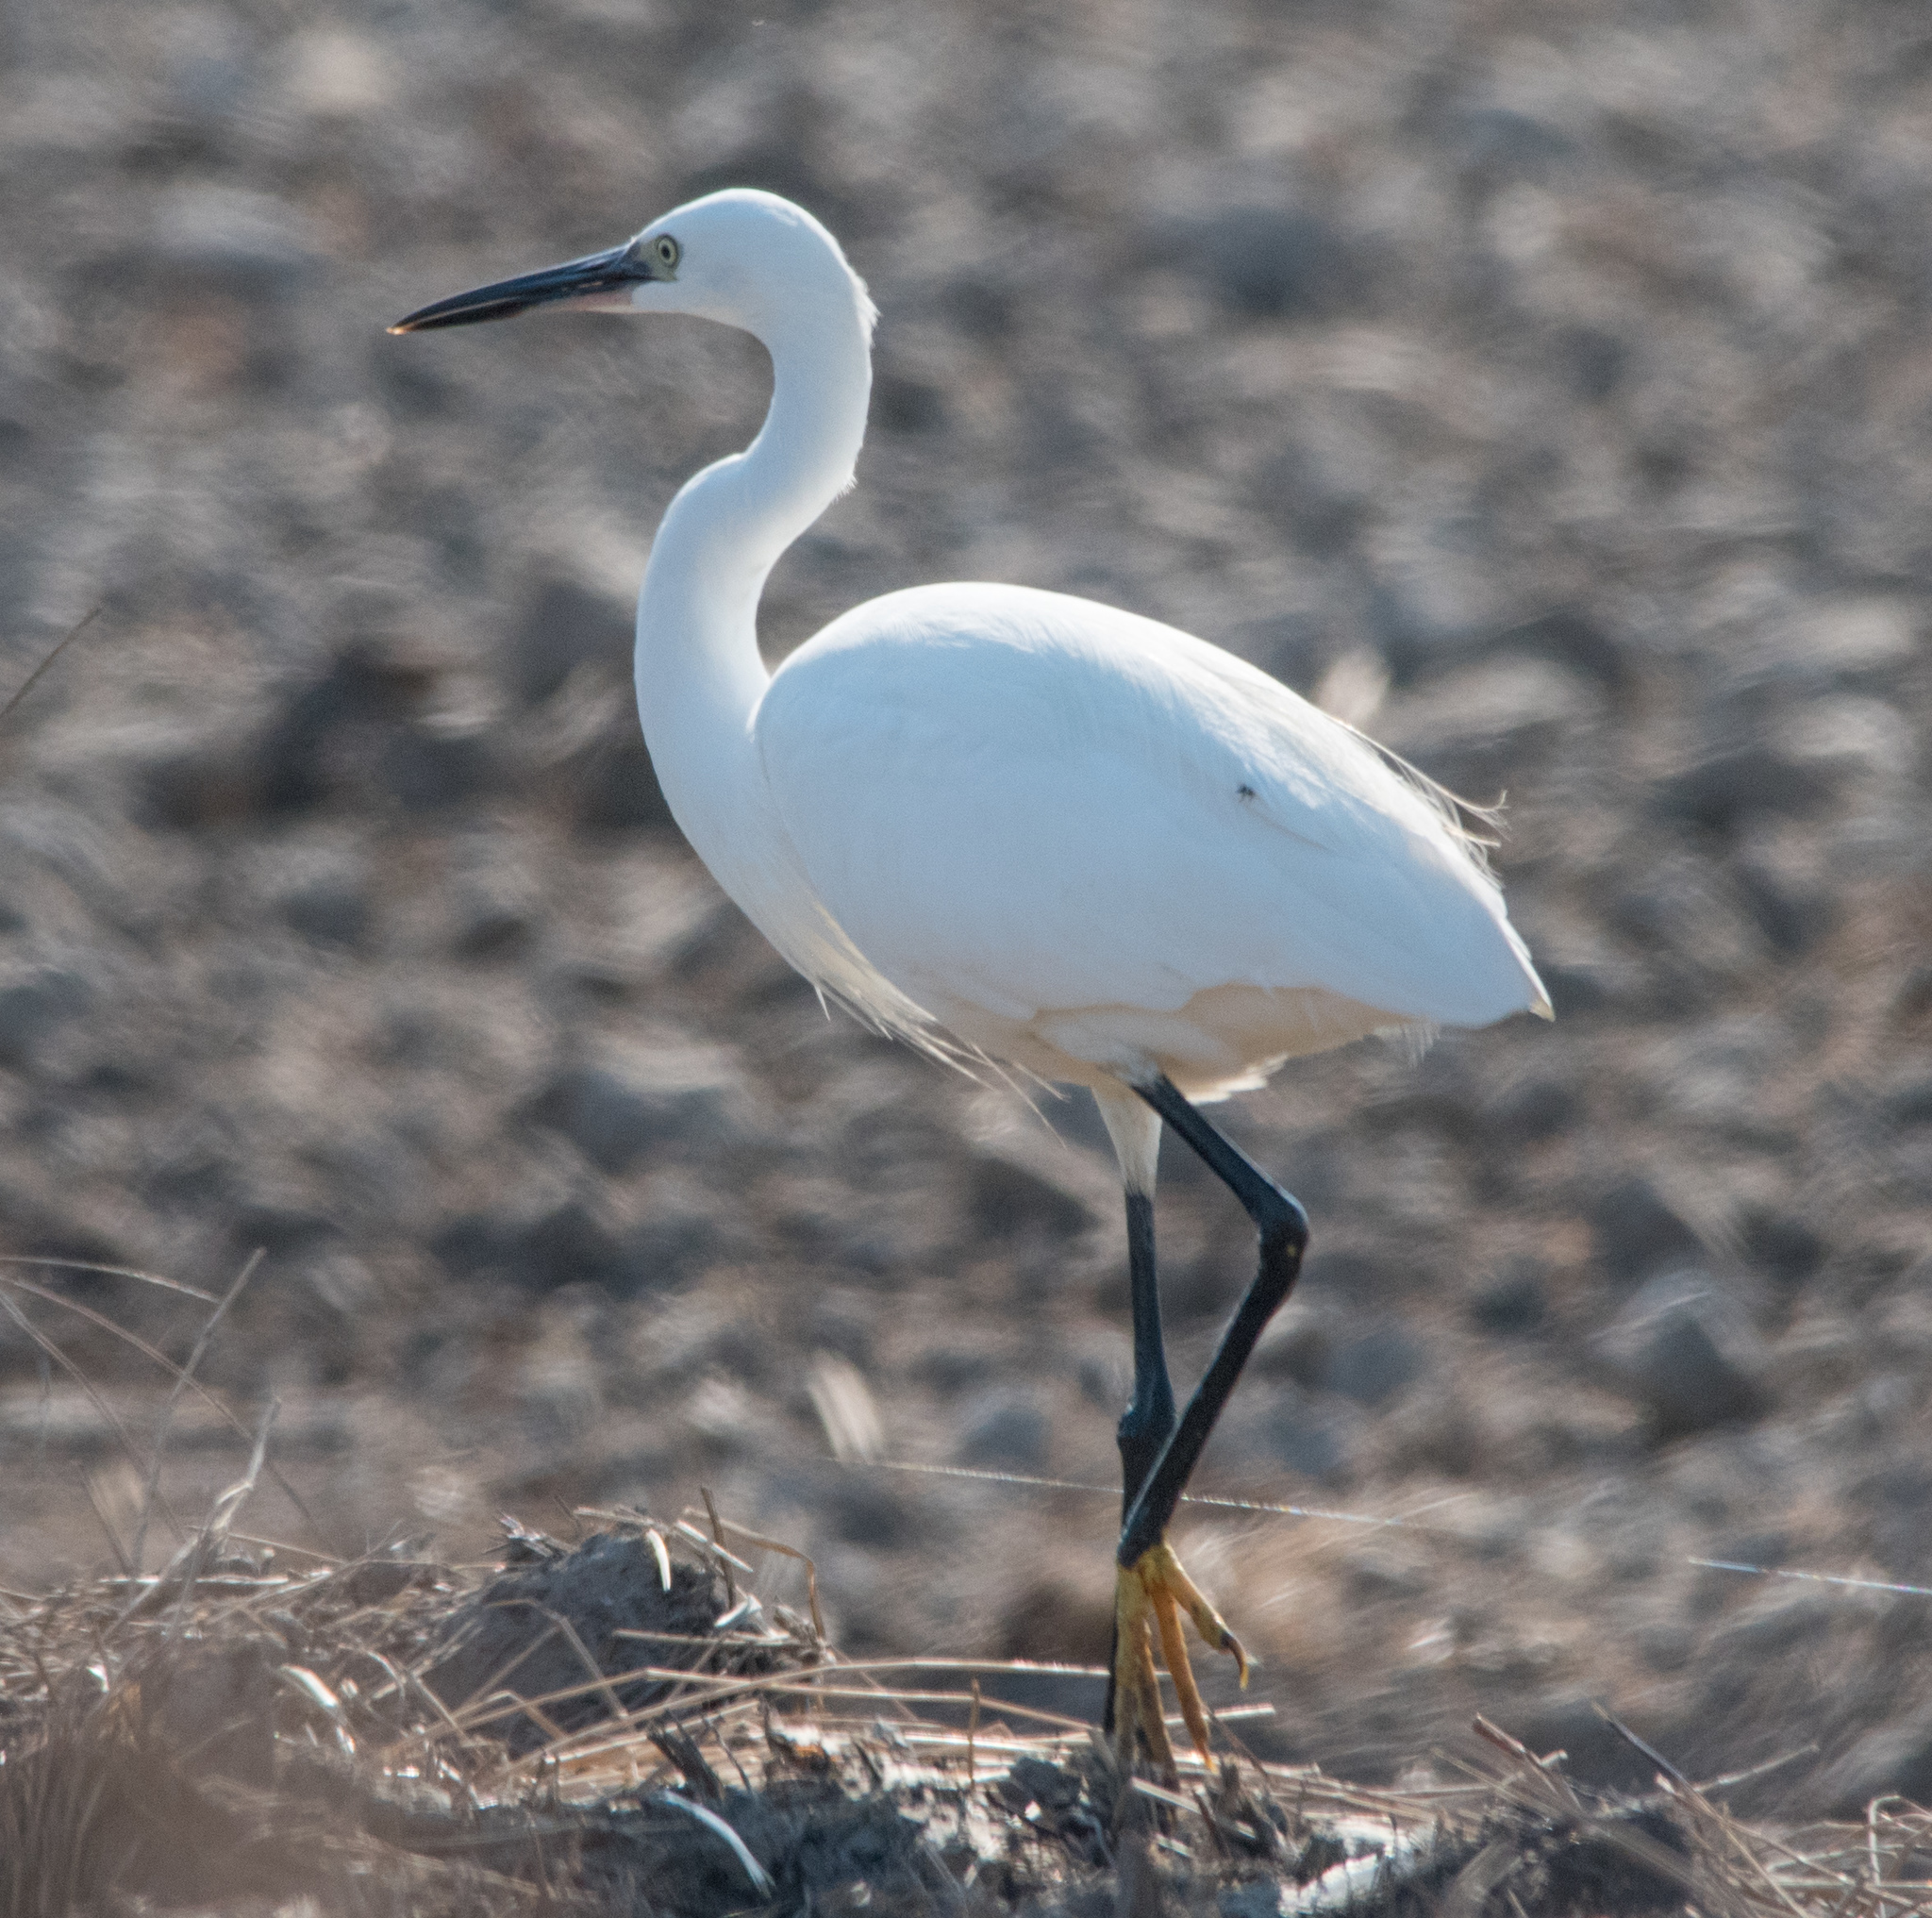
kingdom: Animalia
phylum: Chordata
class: Aves
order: Pelecaniformes
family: Ardeidae
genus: Egretta
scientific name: Egretta garzetta
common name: Little egret
